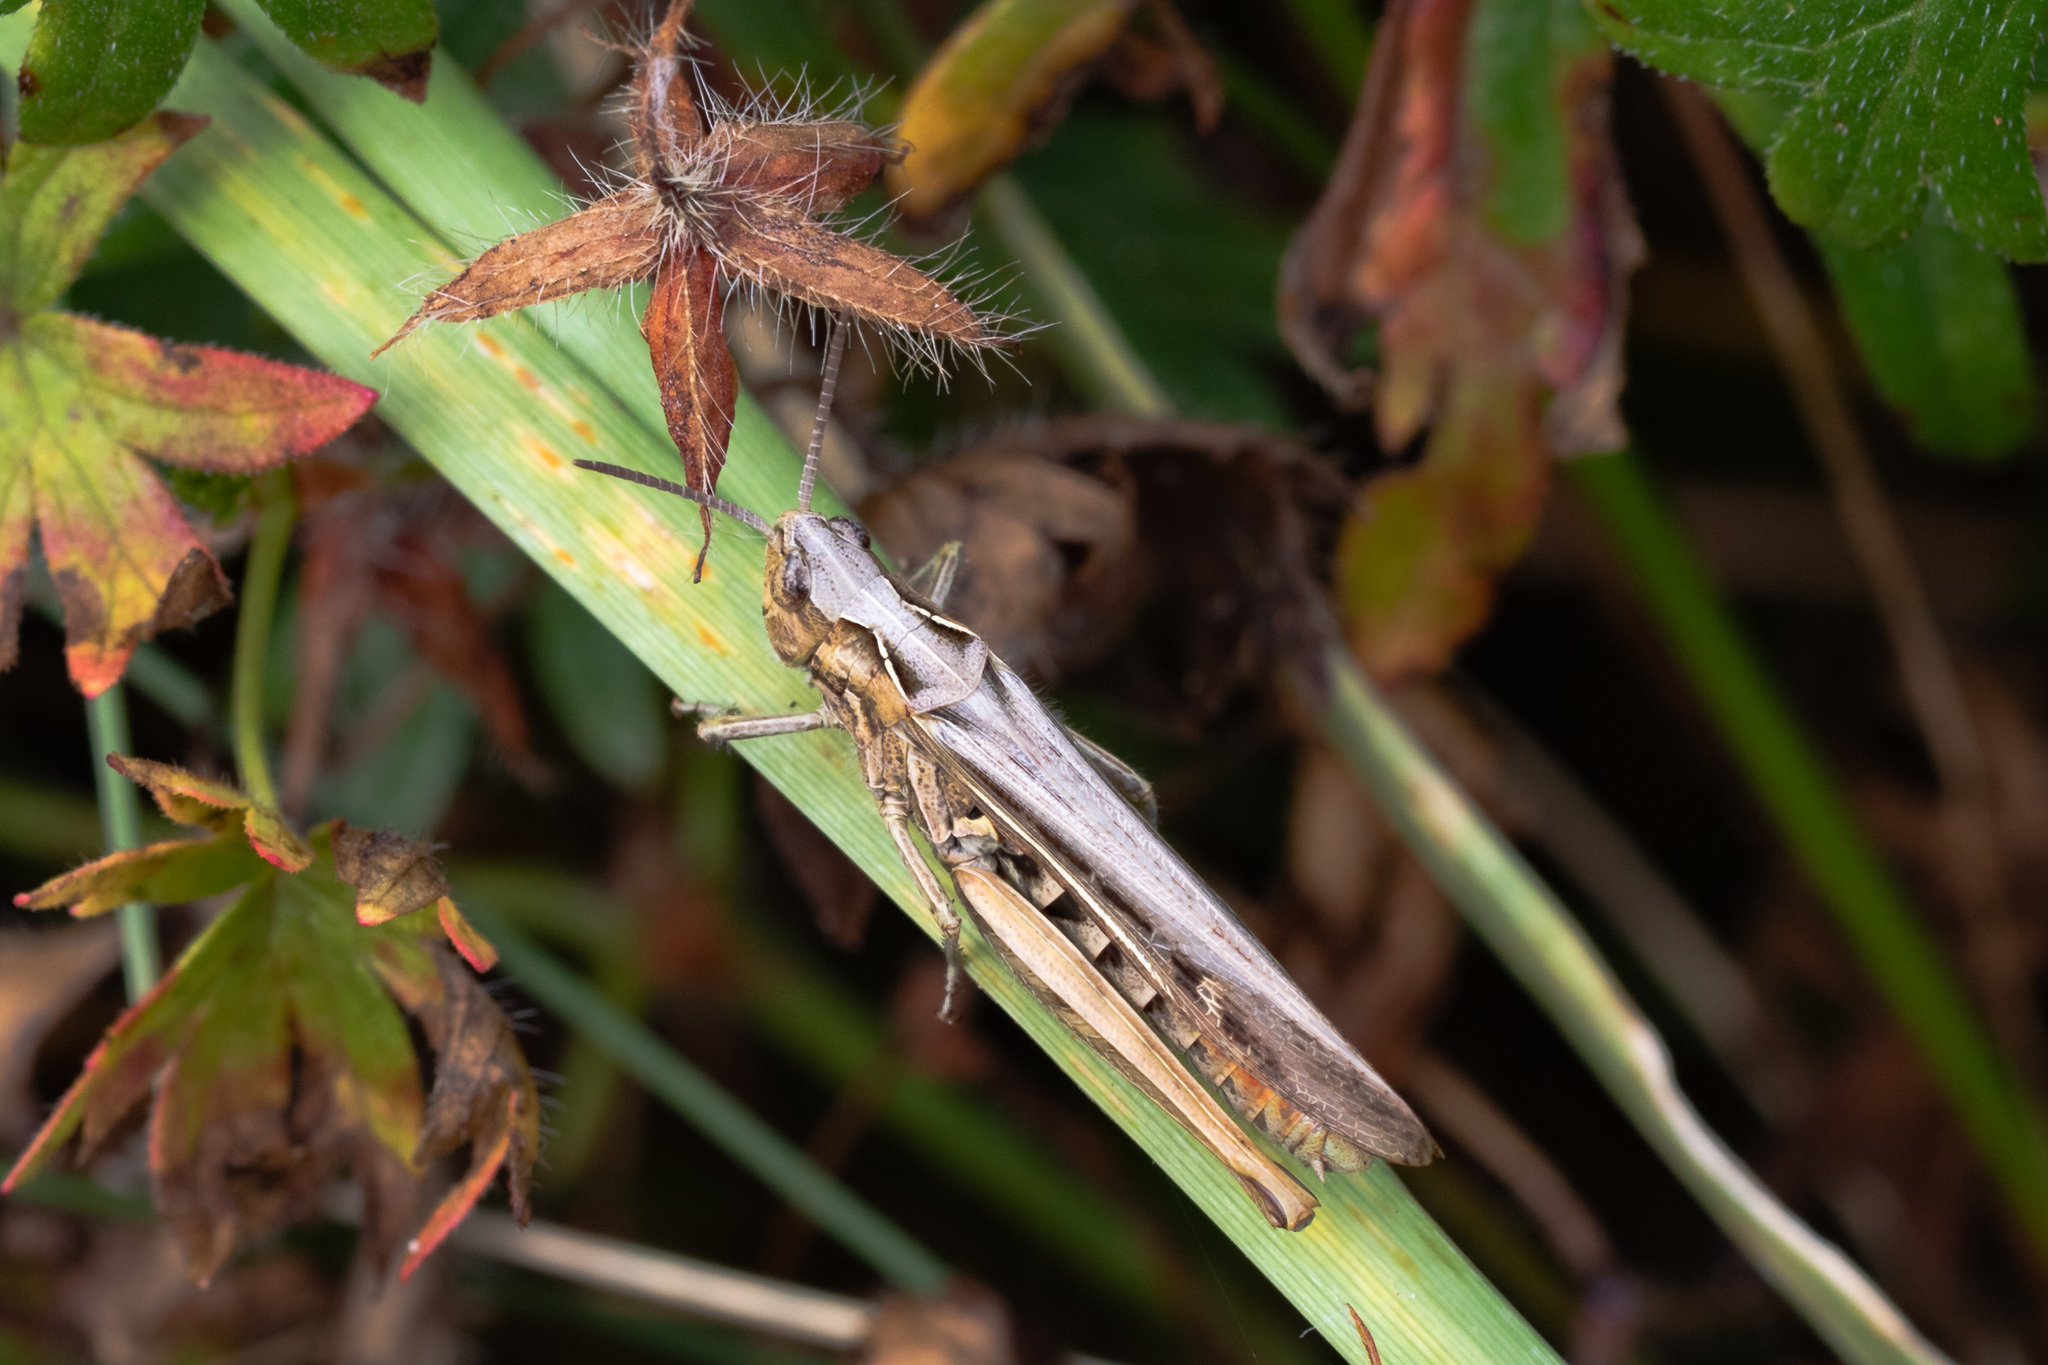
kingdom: Animalia
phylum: Arthropoda
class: Insecta
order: Orthoptera
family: Acrididae
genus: Chorthippus
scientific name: Chorthippus brunneus
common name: Field grasshopper
